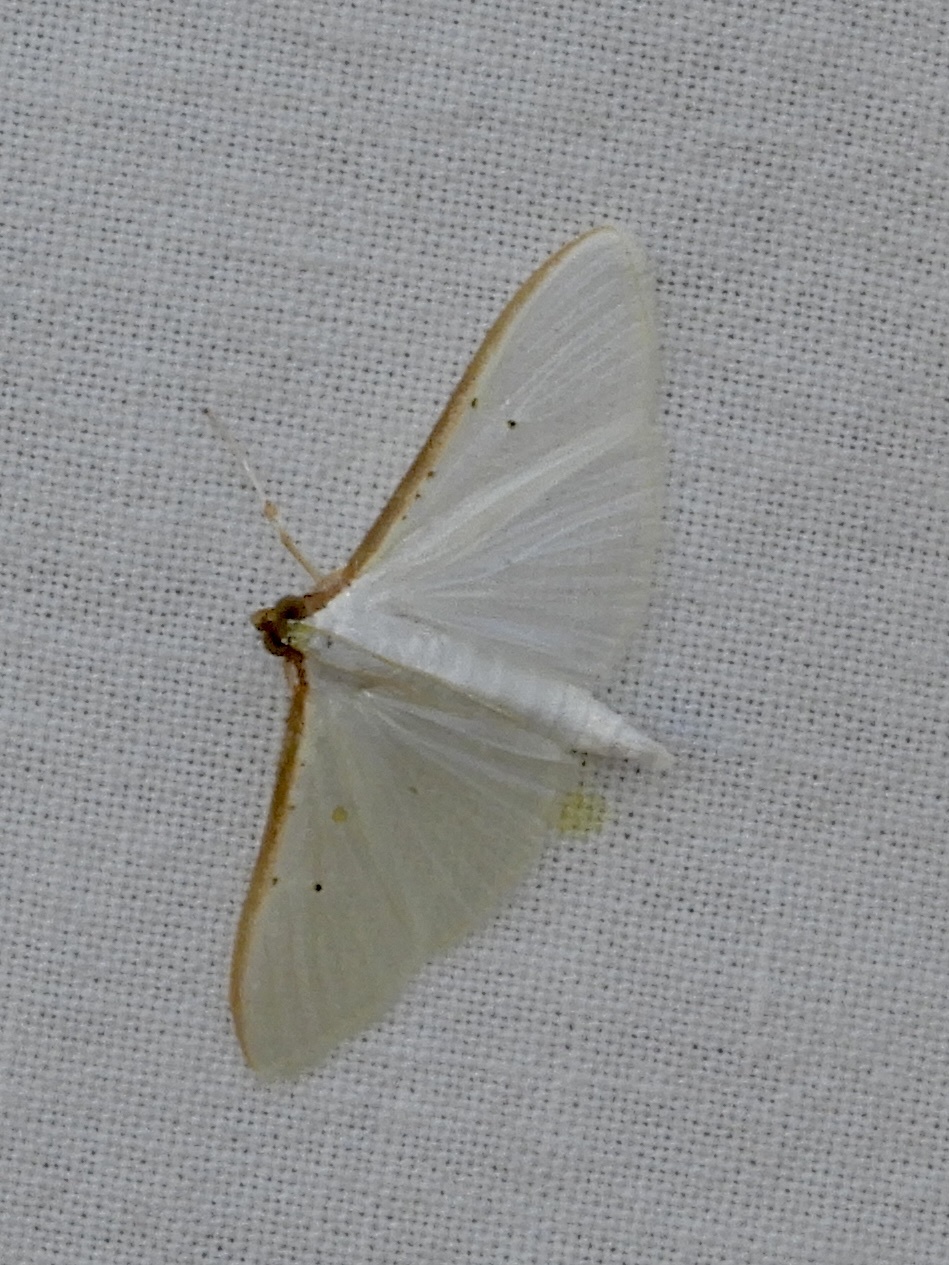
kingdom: Animalia
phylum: Arthropoda
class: Insecta
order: Lepidoptera
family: Crambidae
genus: Palpita
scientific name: Palpita vitrealis
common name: Olive-tree pearl
